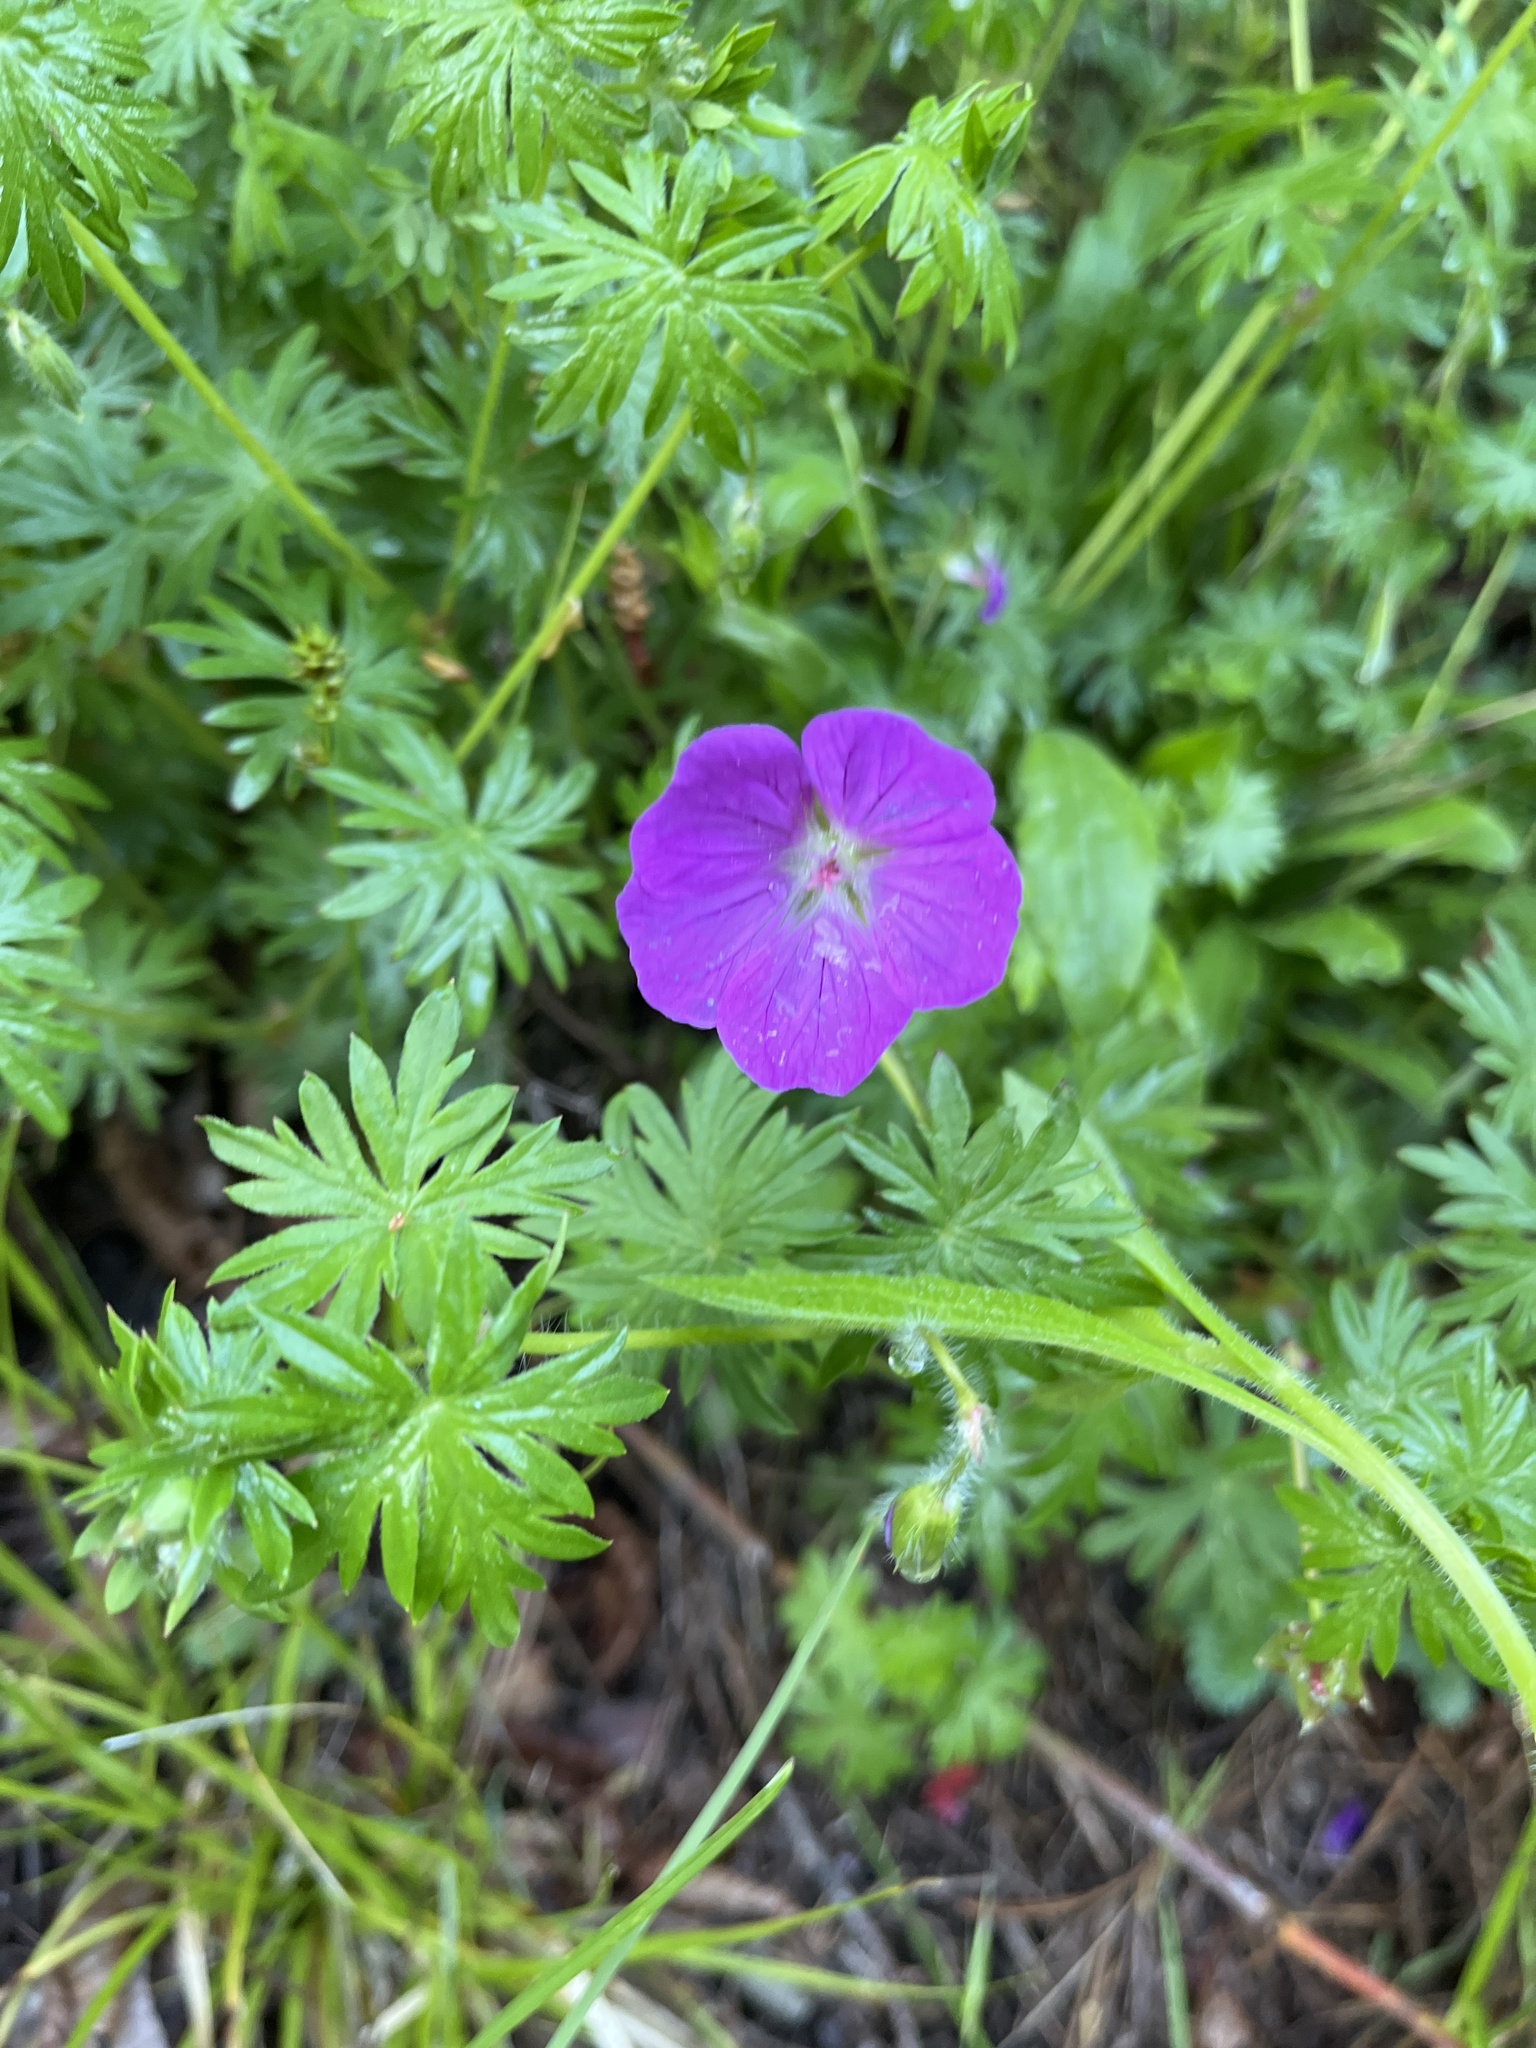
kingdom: Plantae
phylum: Tracheophyta
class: Magnoliopsida
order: Geraniales
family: Geraniaceae
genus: Geranium
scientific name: Geranium sanguineum
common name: Bloody crane's-bill
